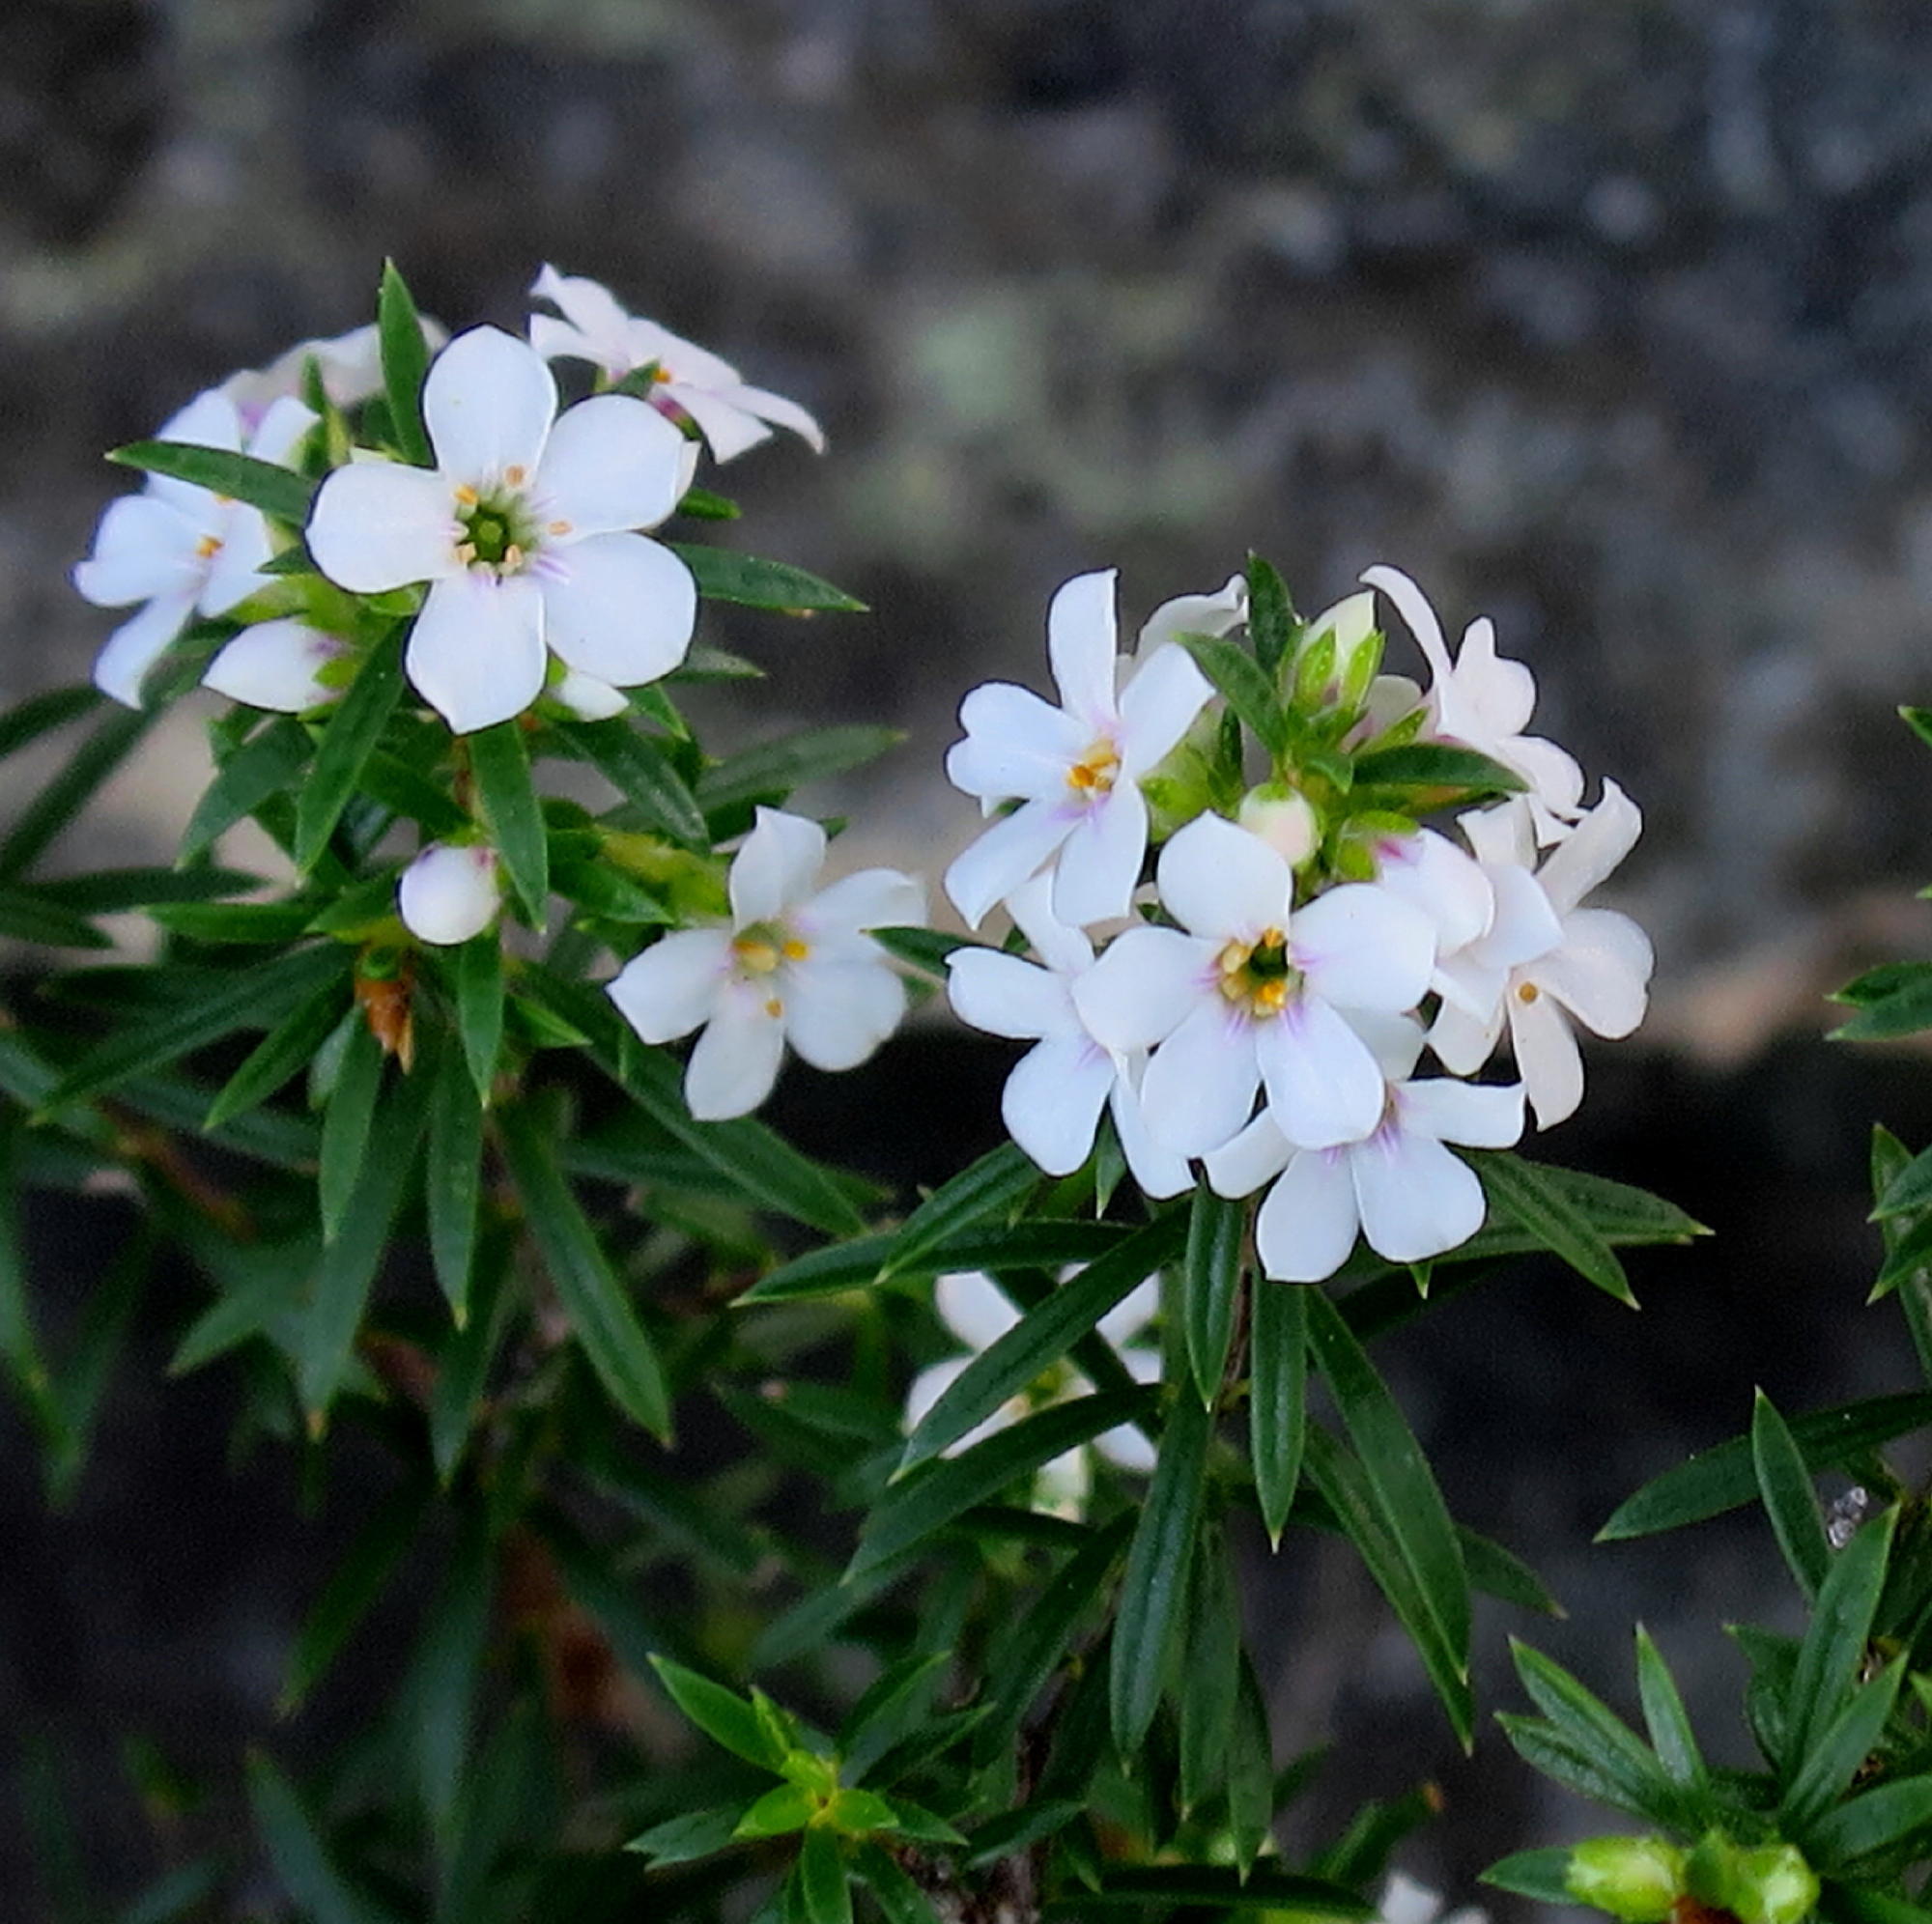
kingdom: Plantae
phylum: Tracheophyta
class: Magnoliopsida
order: Sapindales
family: Rutaceae
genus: Coleonema
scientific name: Coleonema album
